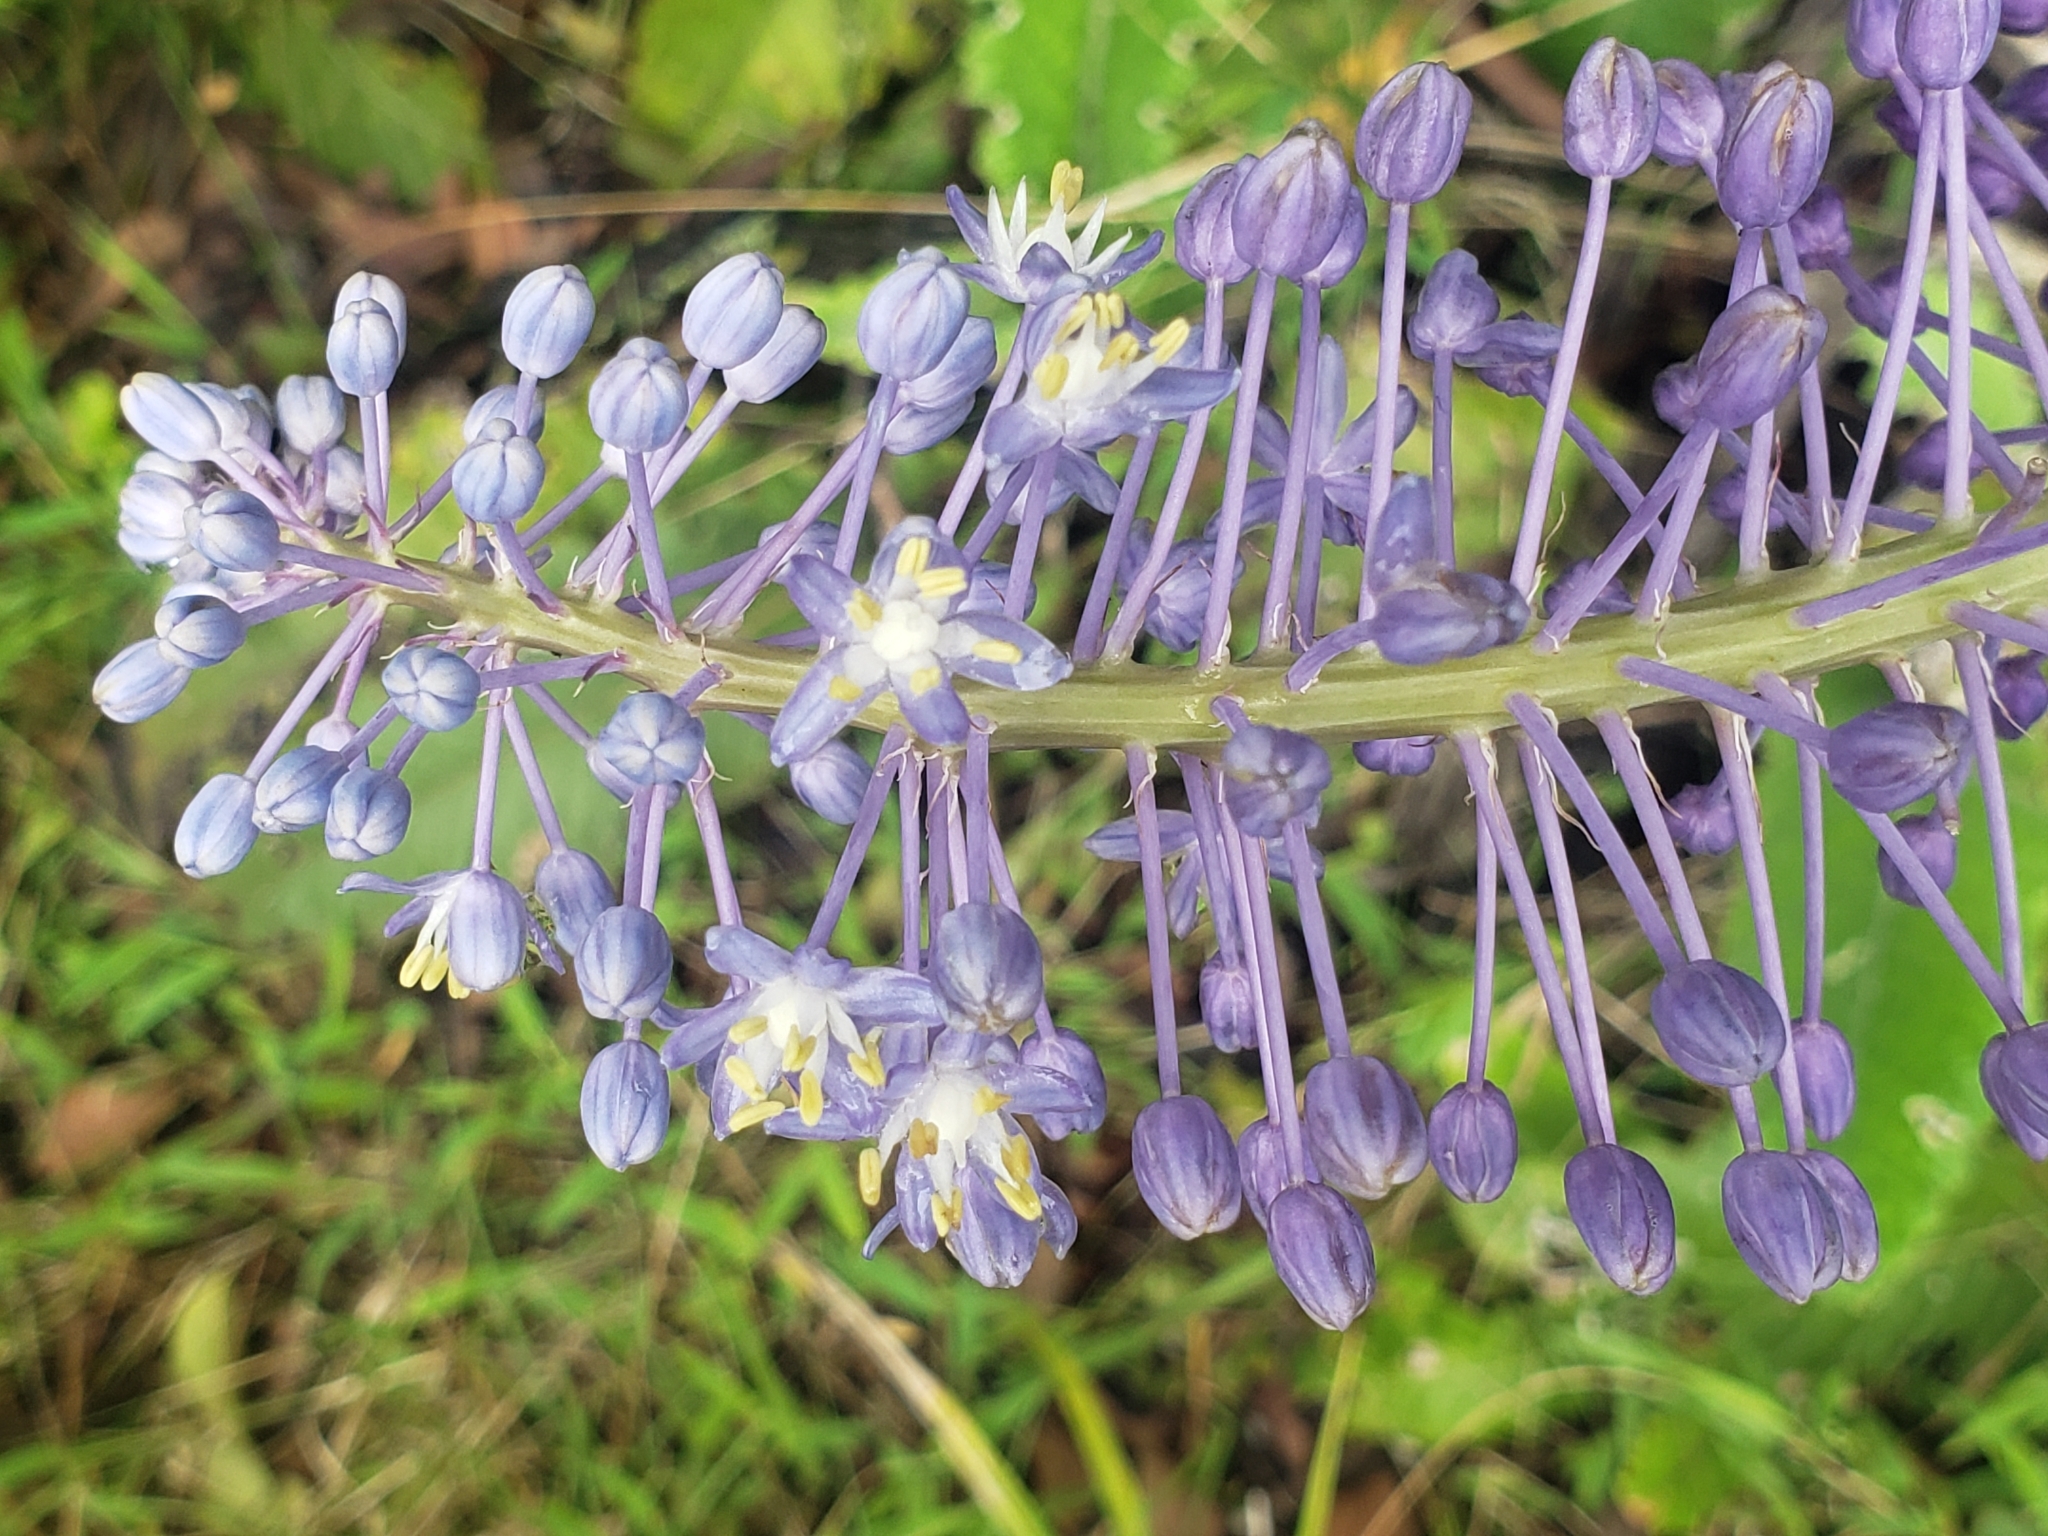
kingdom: Plantae
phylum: Tracheophyta
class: Liliopsida
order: Asparagales
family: Asparagaceae
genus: Merwilla
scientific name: Merwilla plumbea
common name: Blue-squill
